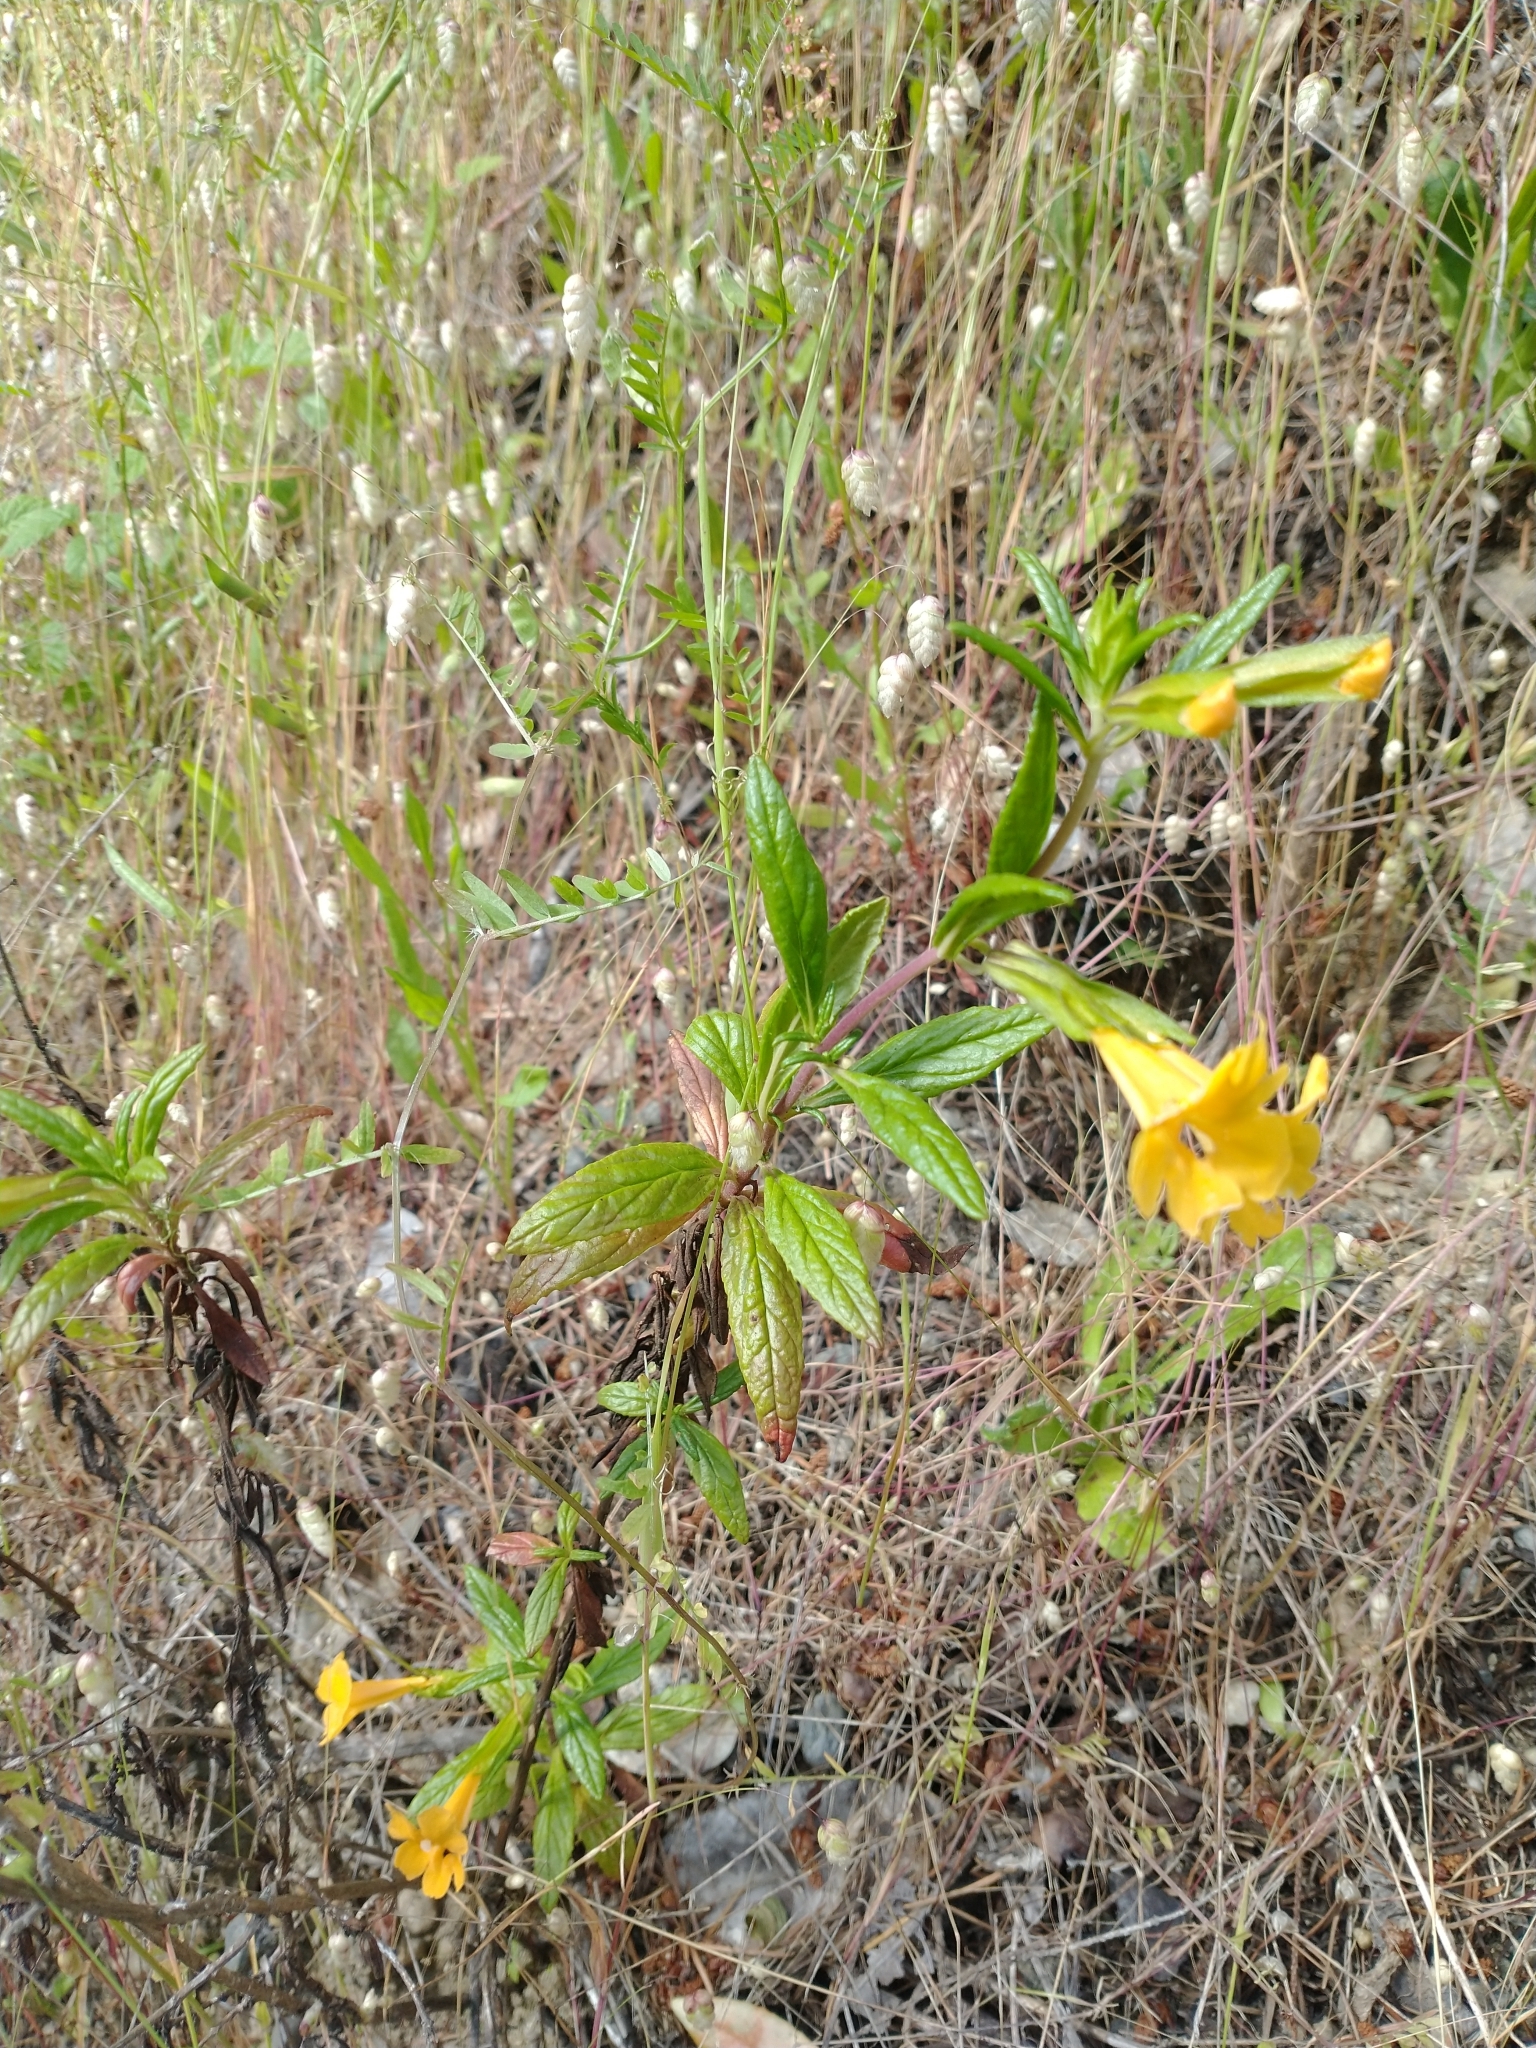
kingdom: Plantae
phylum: Tracheophyta
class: Magnoliopsida
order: Lamiales
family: Phrymaceae
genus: Diplacus
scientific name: Diplacus aurantiacus
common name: Bush monkey-flower
